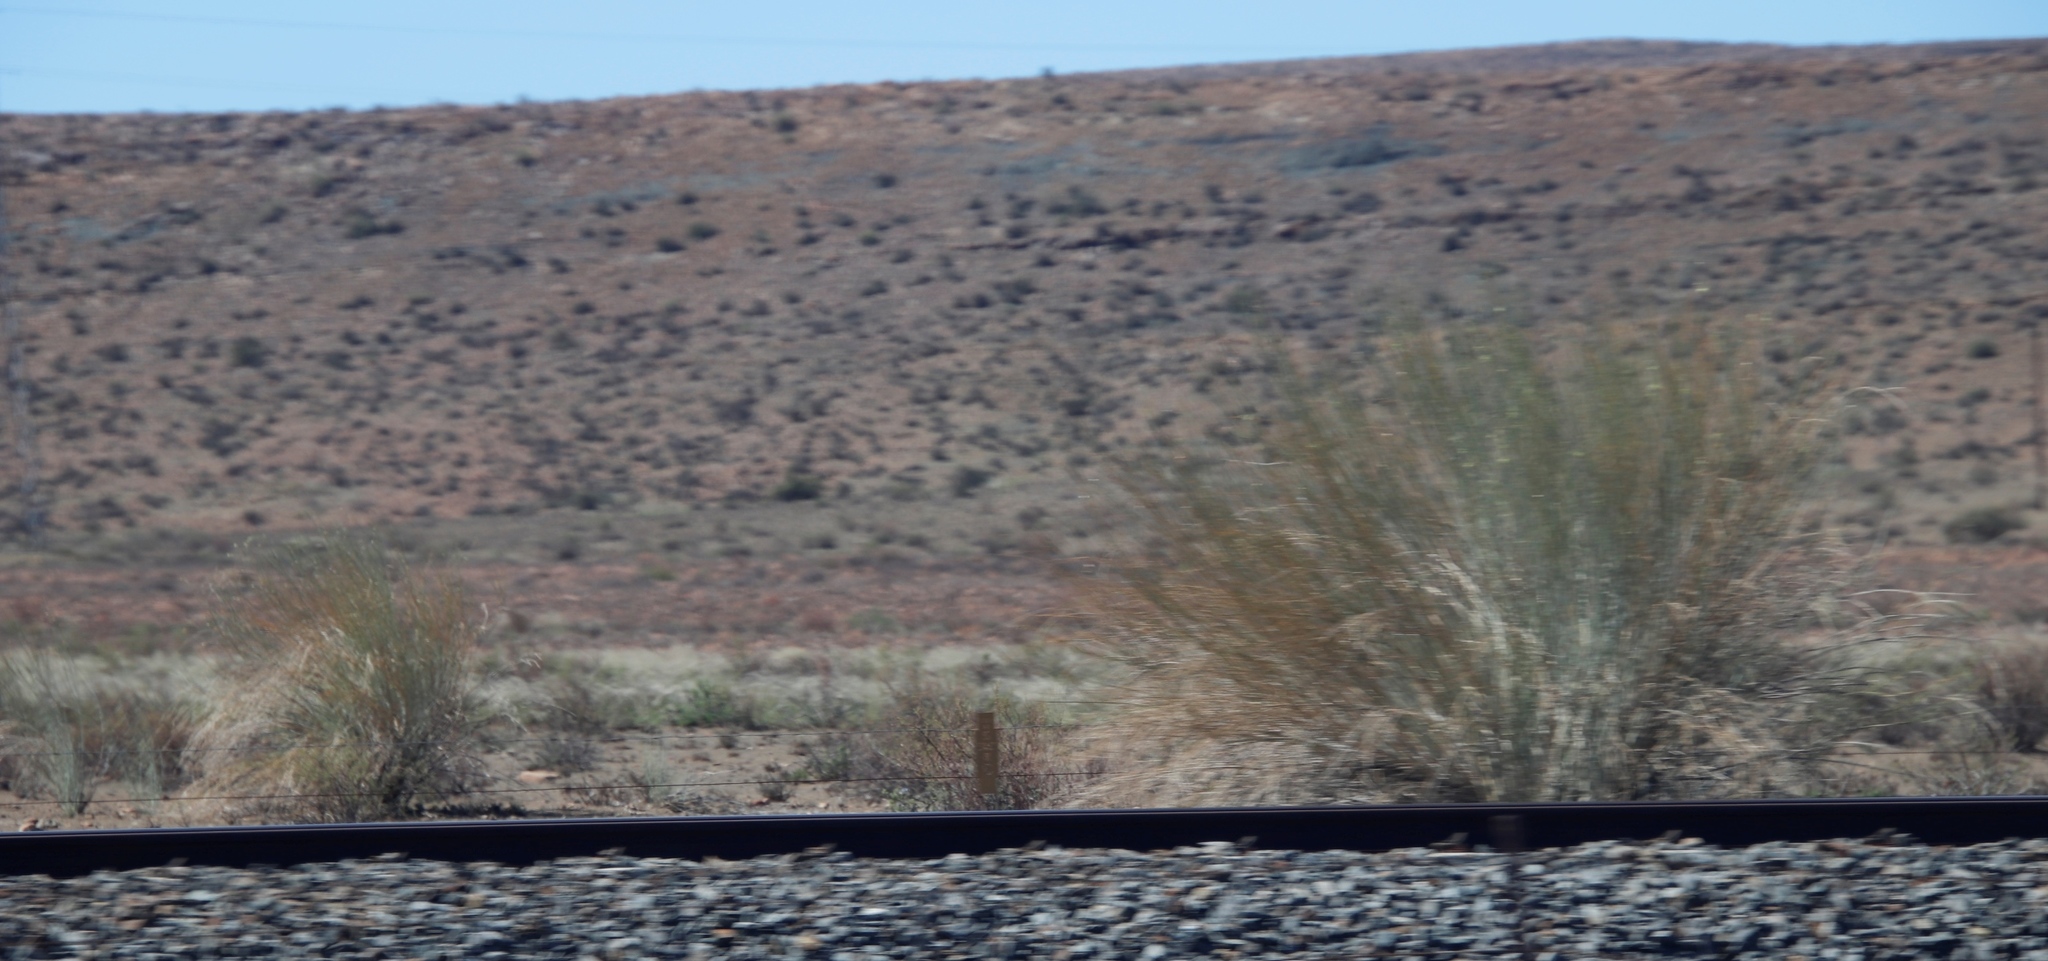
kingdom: Plantae
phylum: Tracheophyta
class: Magnoliopsida
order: Gentianales
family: Apocynaceae
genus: Gomphocarpus
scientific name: Gomphocarpus filiformis
